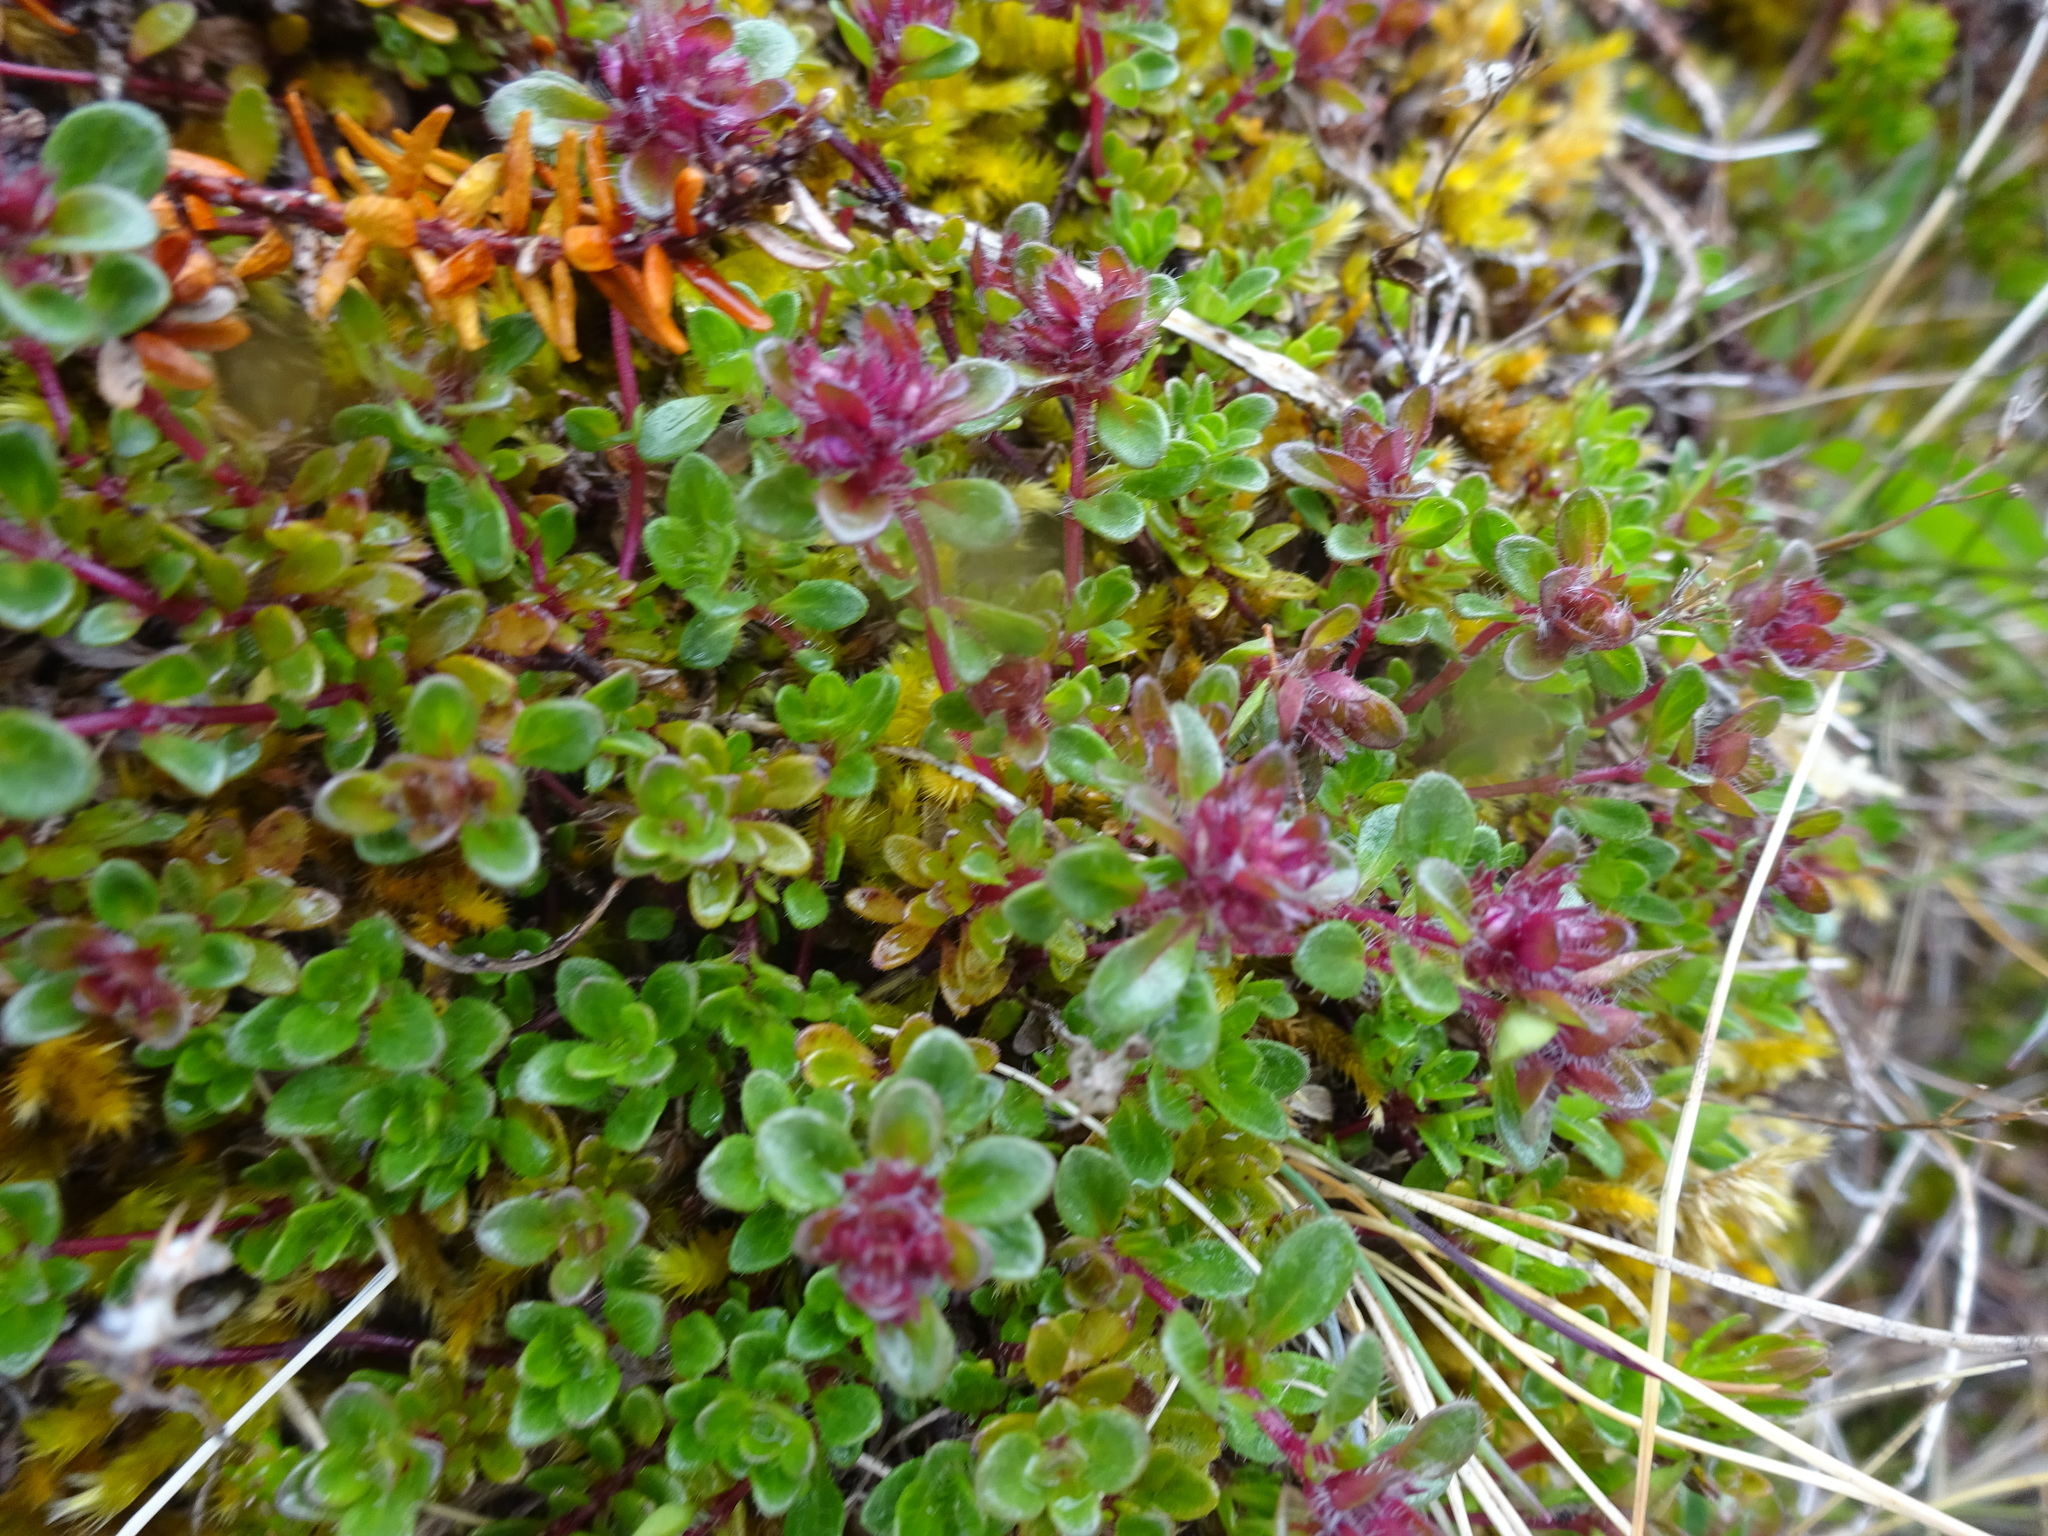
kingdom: Plantae
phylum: Tracheophyta
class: Magnoliopsida
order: Lamiales
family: Lamiaceae
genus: Thymus
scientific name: Thymus praecox
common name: Wild thyme
